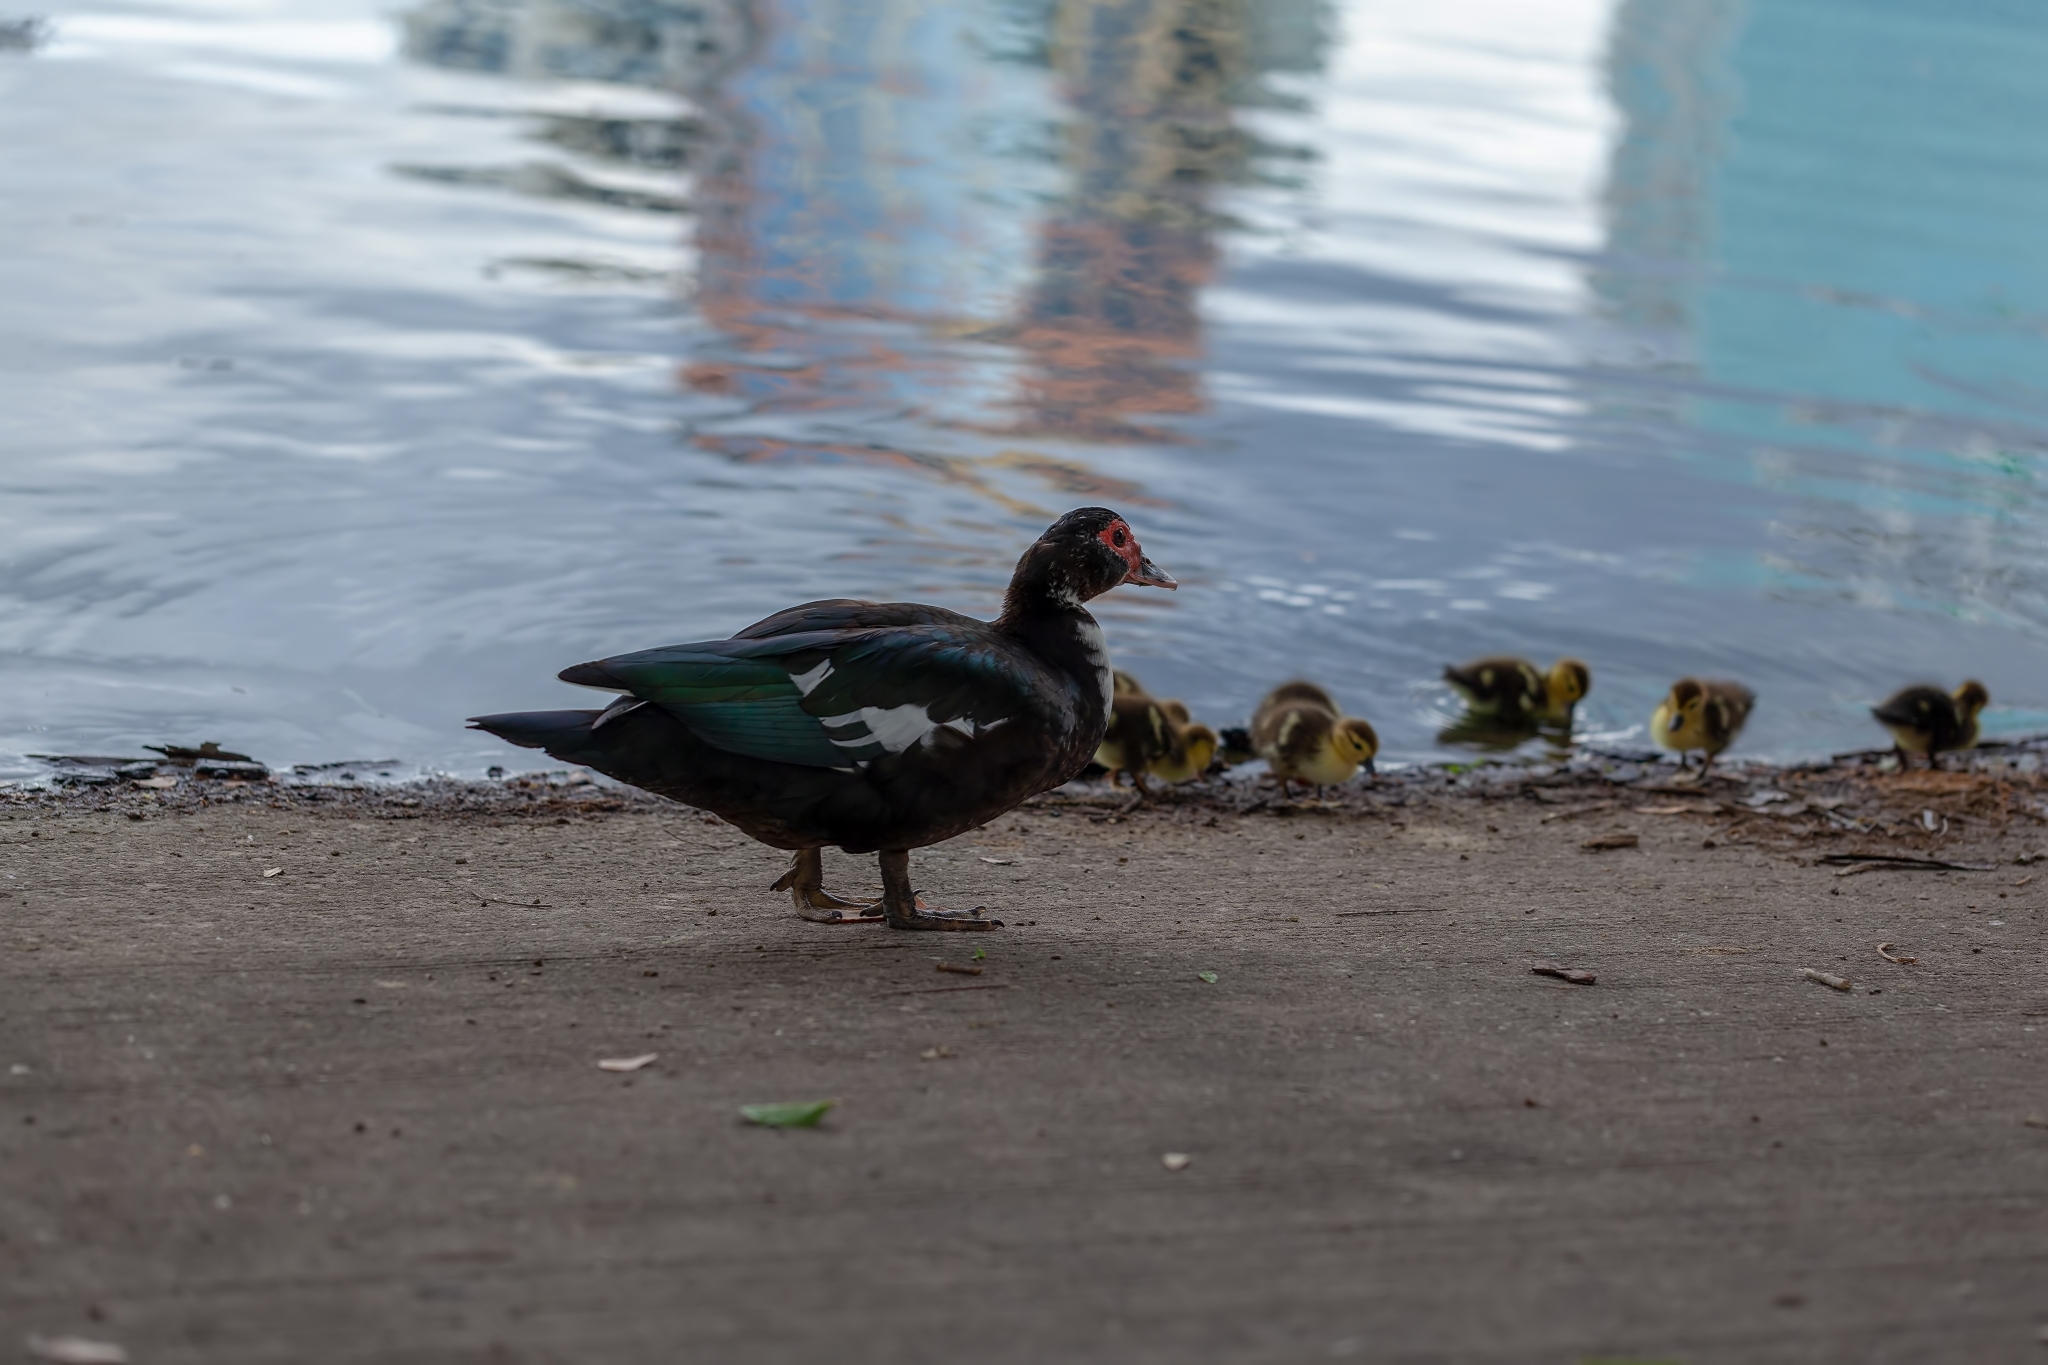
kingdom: Animalia
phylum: Chordata
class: Aves
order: Anseriformes
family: Anatidae
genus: Cairina
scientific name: Cairina moschata
